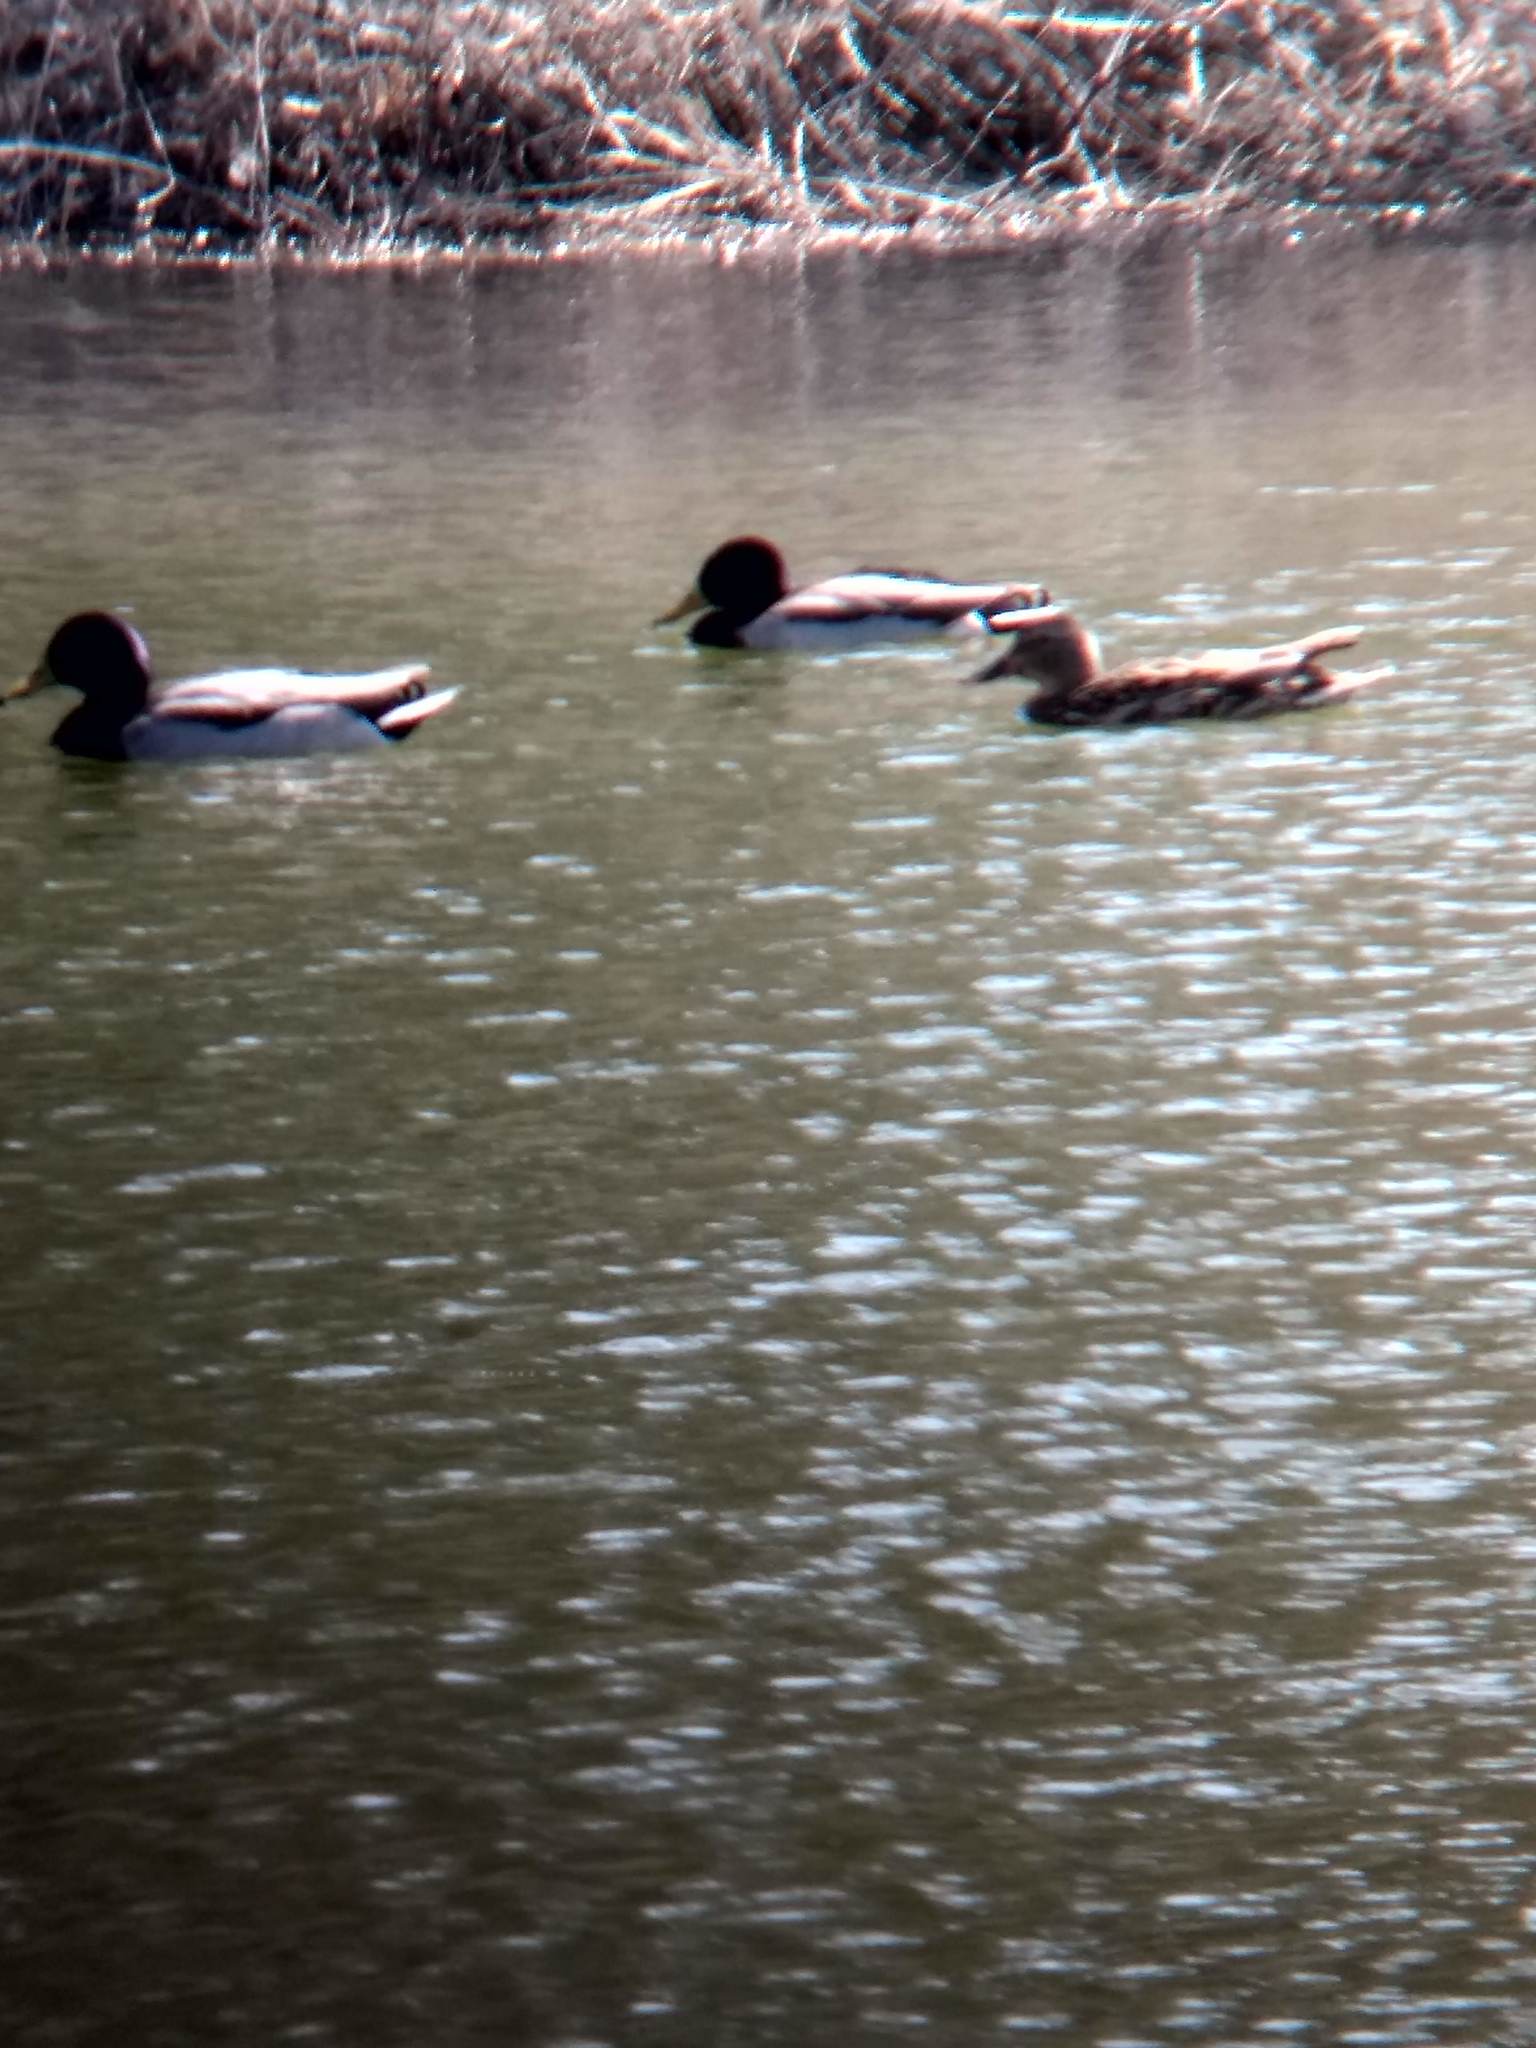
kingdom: Animalia
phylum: Chordata
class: Aves
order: Anseriformes
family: Anatidae
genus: Anas
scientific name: Anas platyrhynchos
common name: Mallard
